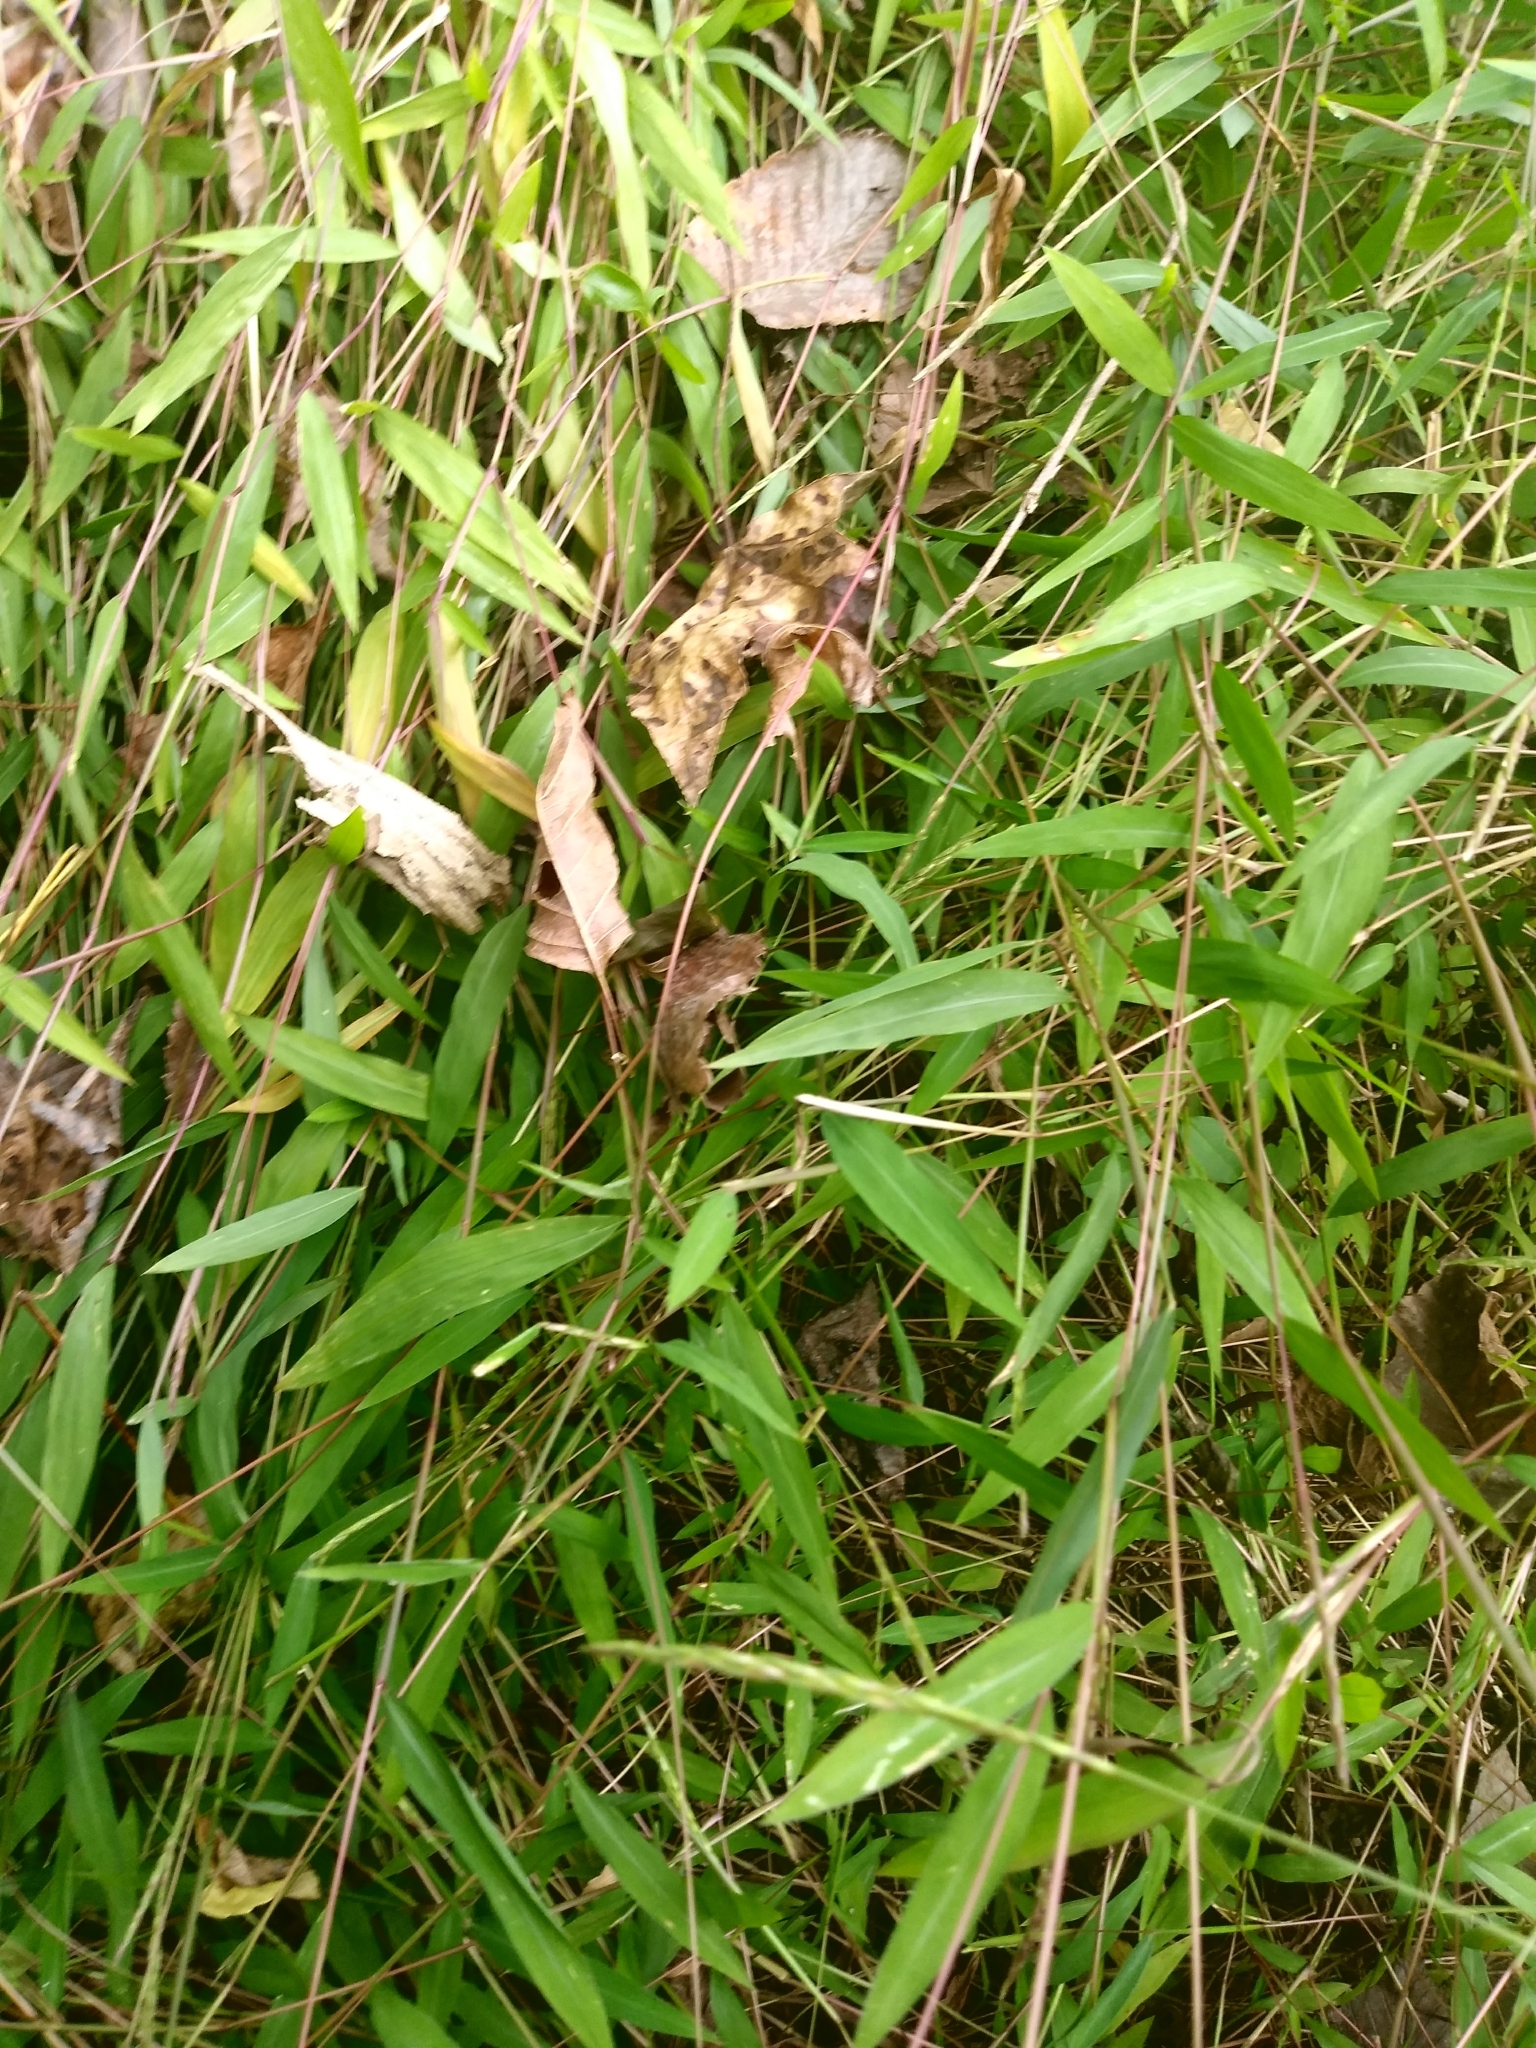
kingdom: Plantae
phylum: Tracheophyta
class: Liliopsida
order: Poales
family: Poaceae
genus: Microstegium
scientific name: Microstegium vimineum
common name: Japanese stiltgrass
